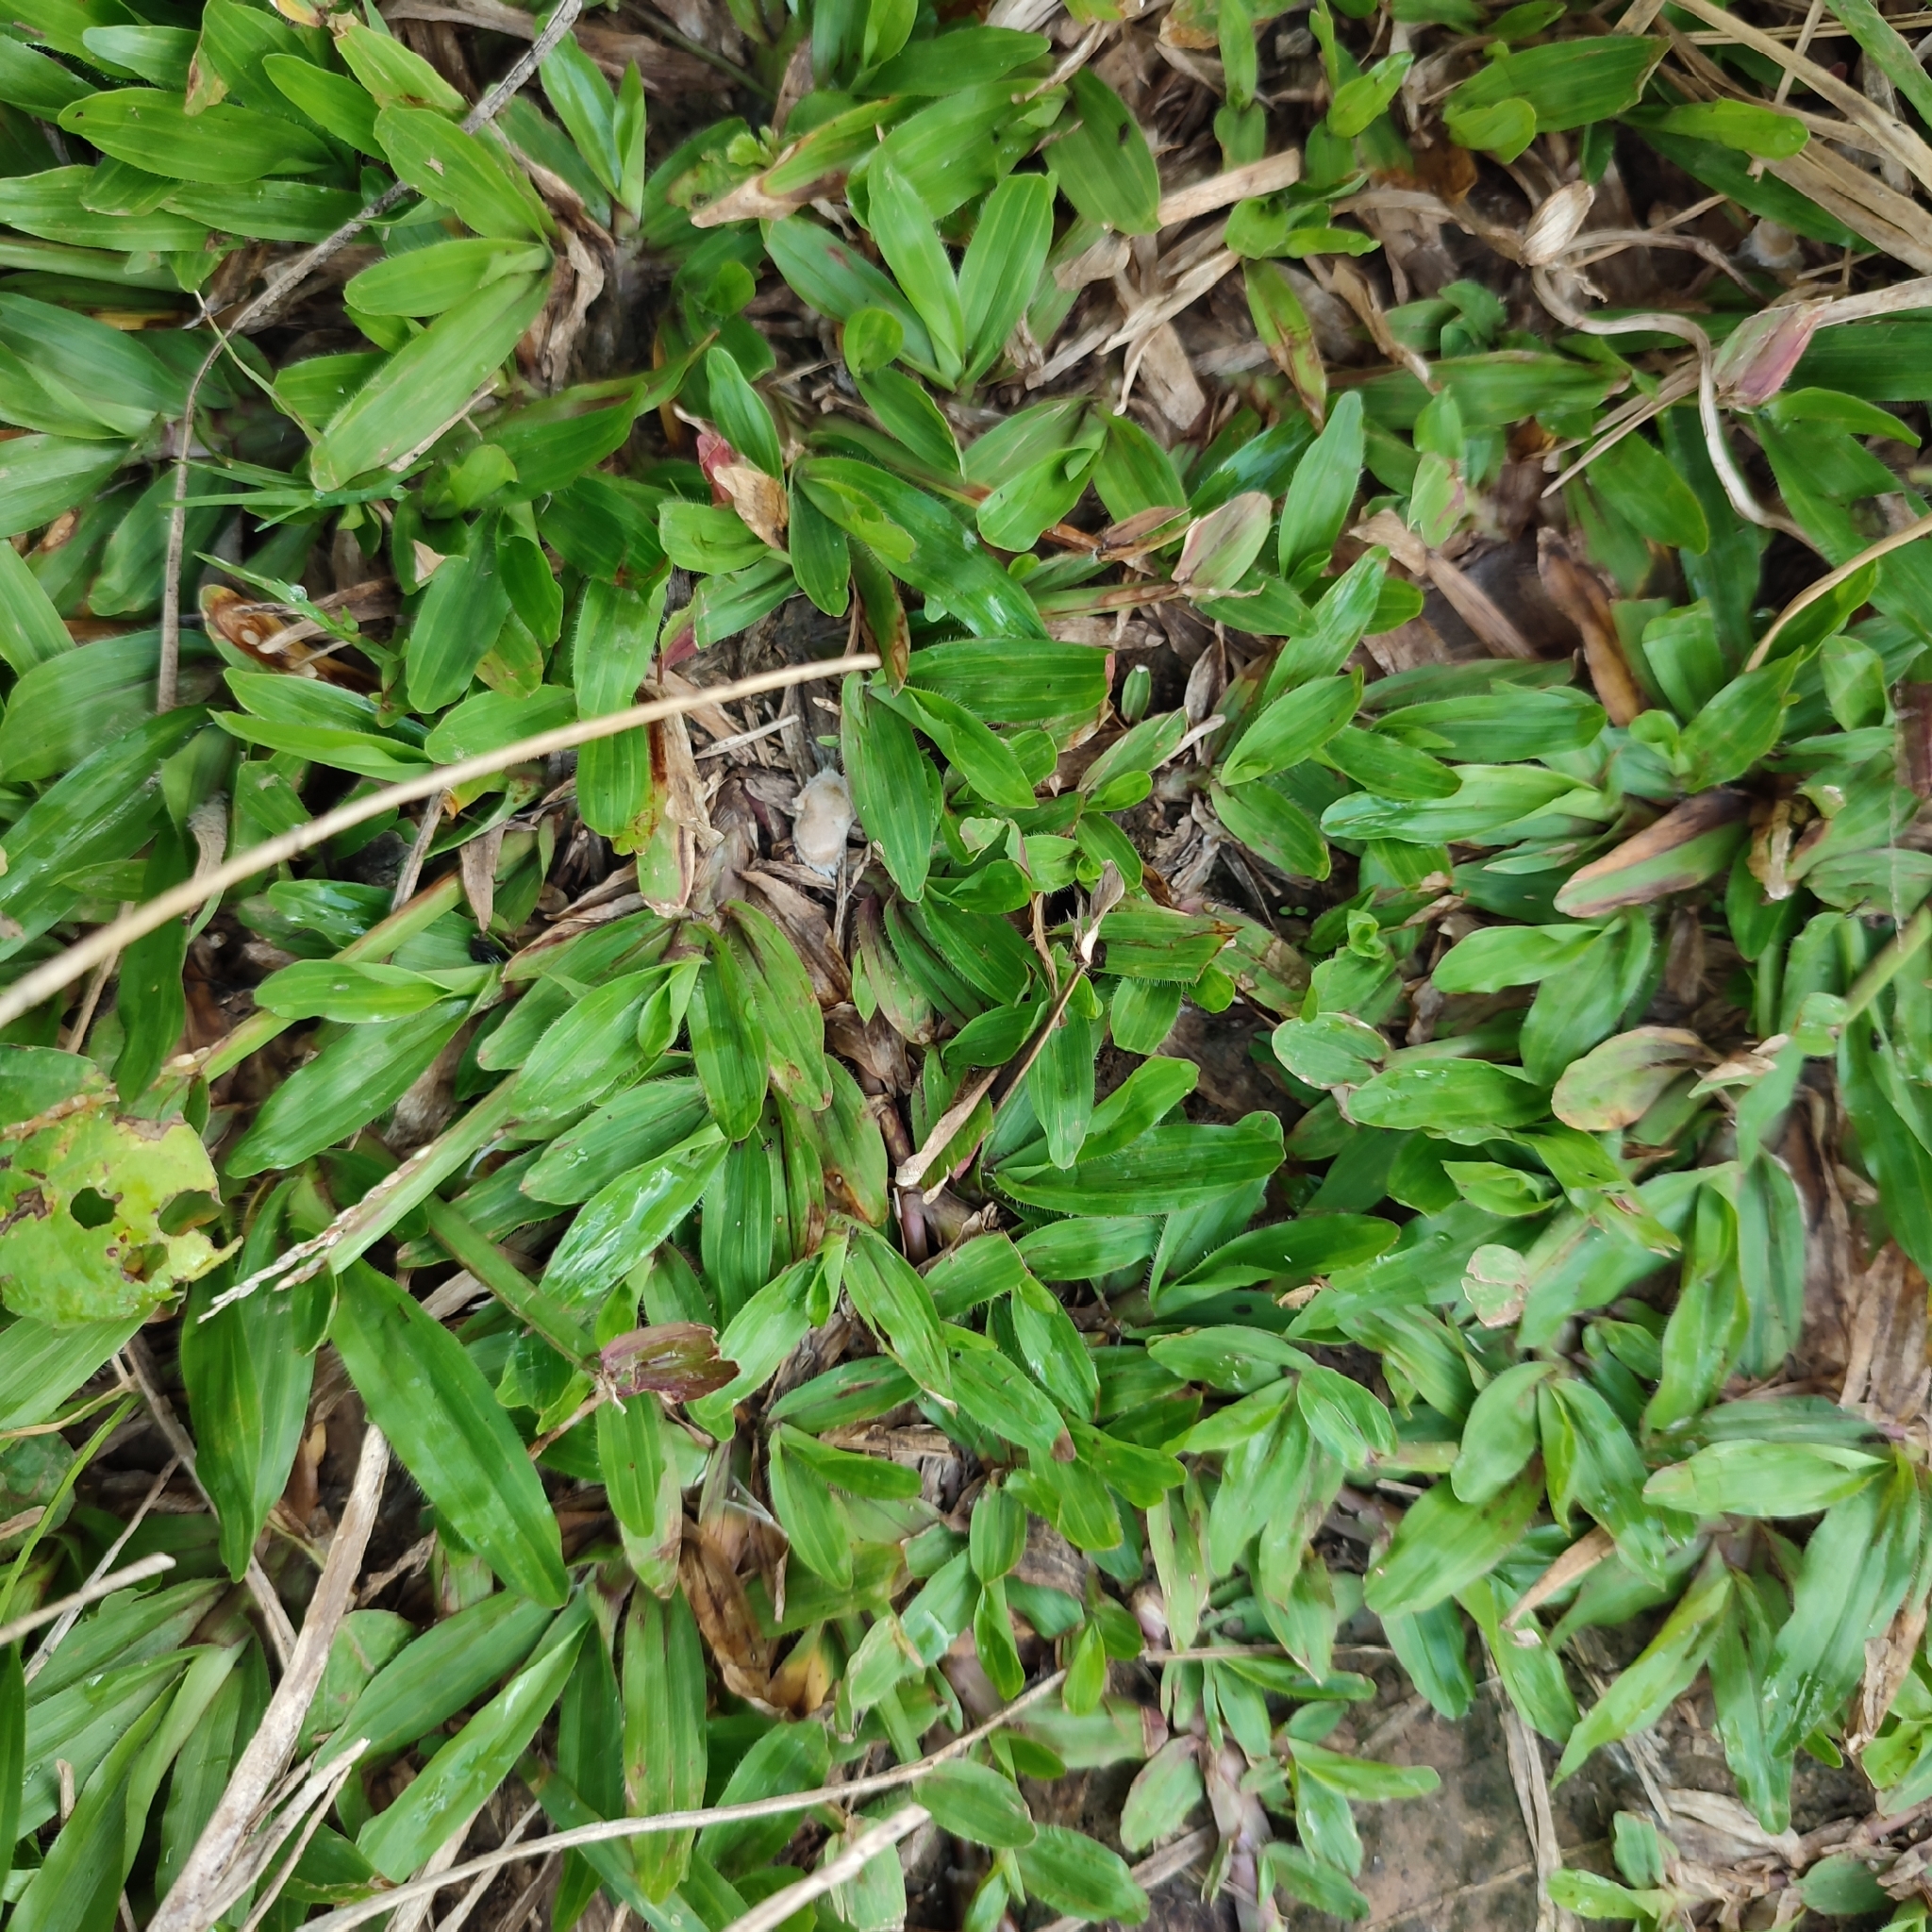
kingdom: Plantae
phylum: Tracheophyta
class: Liliopsida
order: Poales
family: Poaceae
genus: Axonopus
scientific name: Axonopus compressus
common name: American carpet grass
